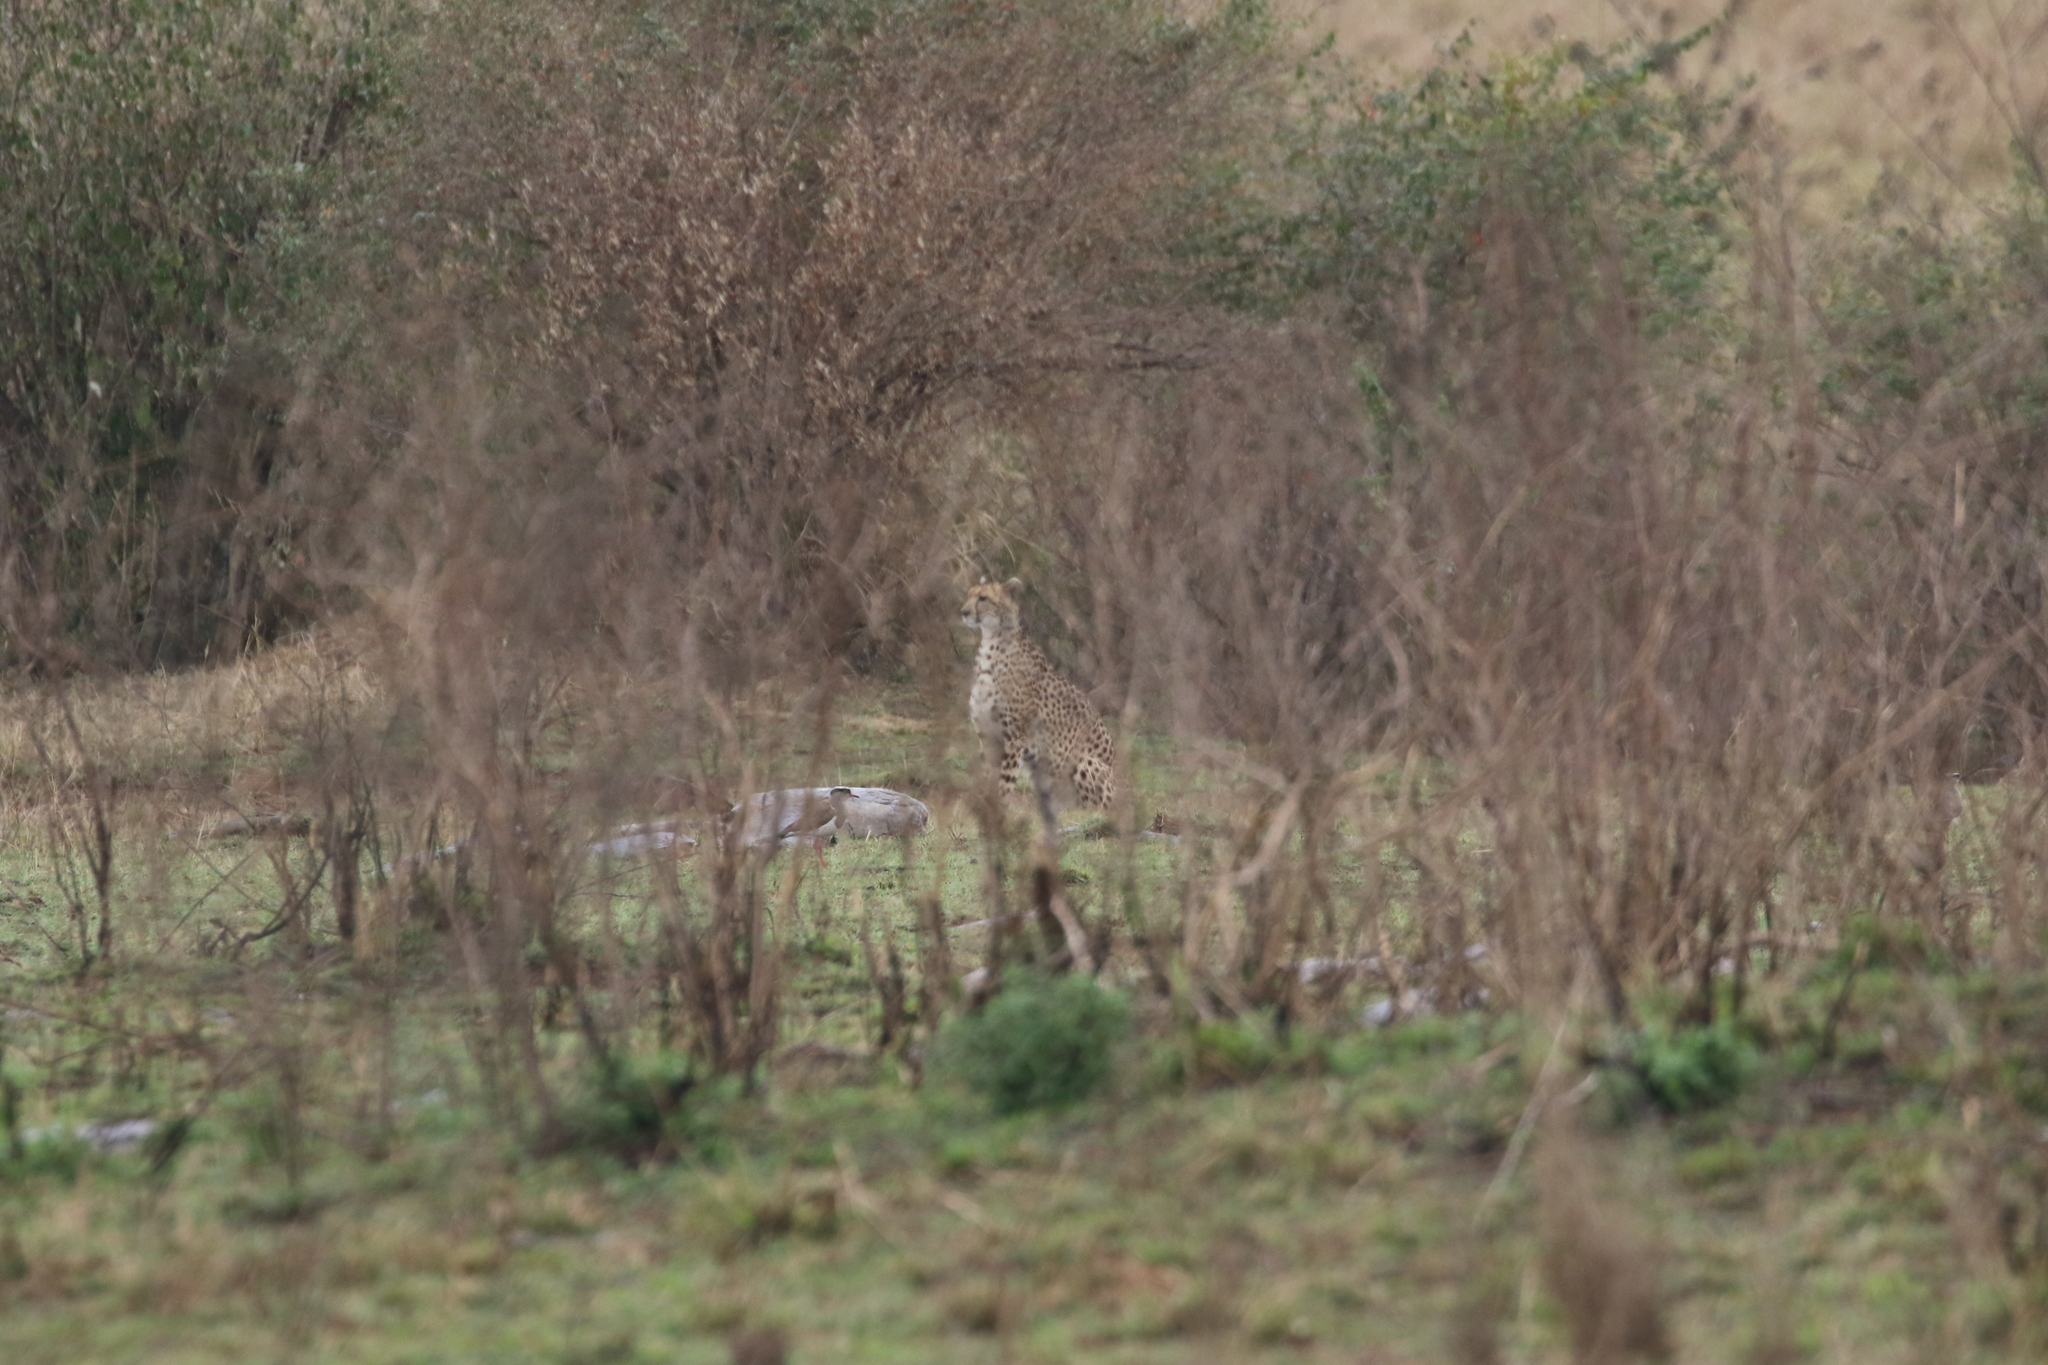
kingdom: Animalia
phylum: Chordata
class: Aves
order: Charadriiformes
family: Charadriidae
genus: Vanellus
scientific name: Vanellus coronatus
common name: Crowned lapwing
